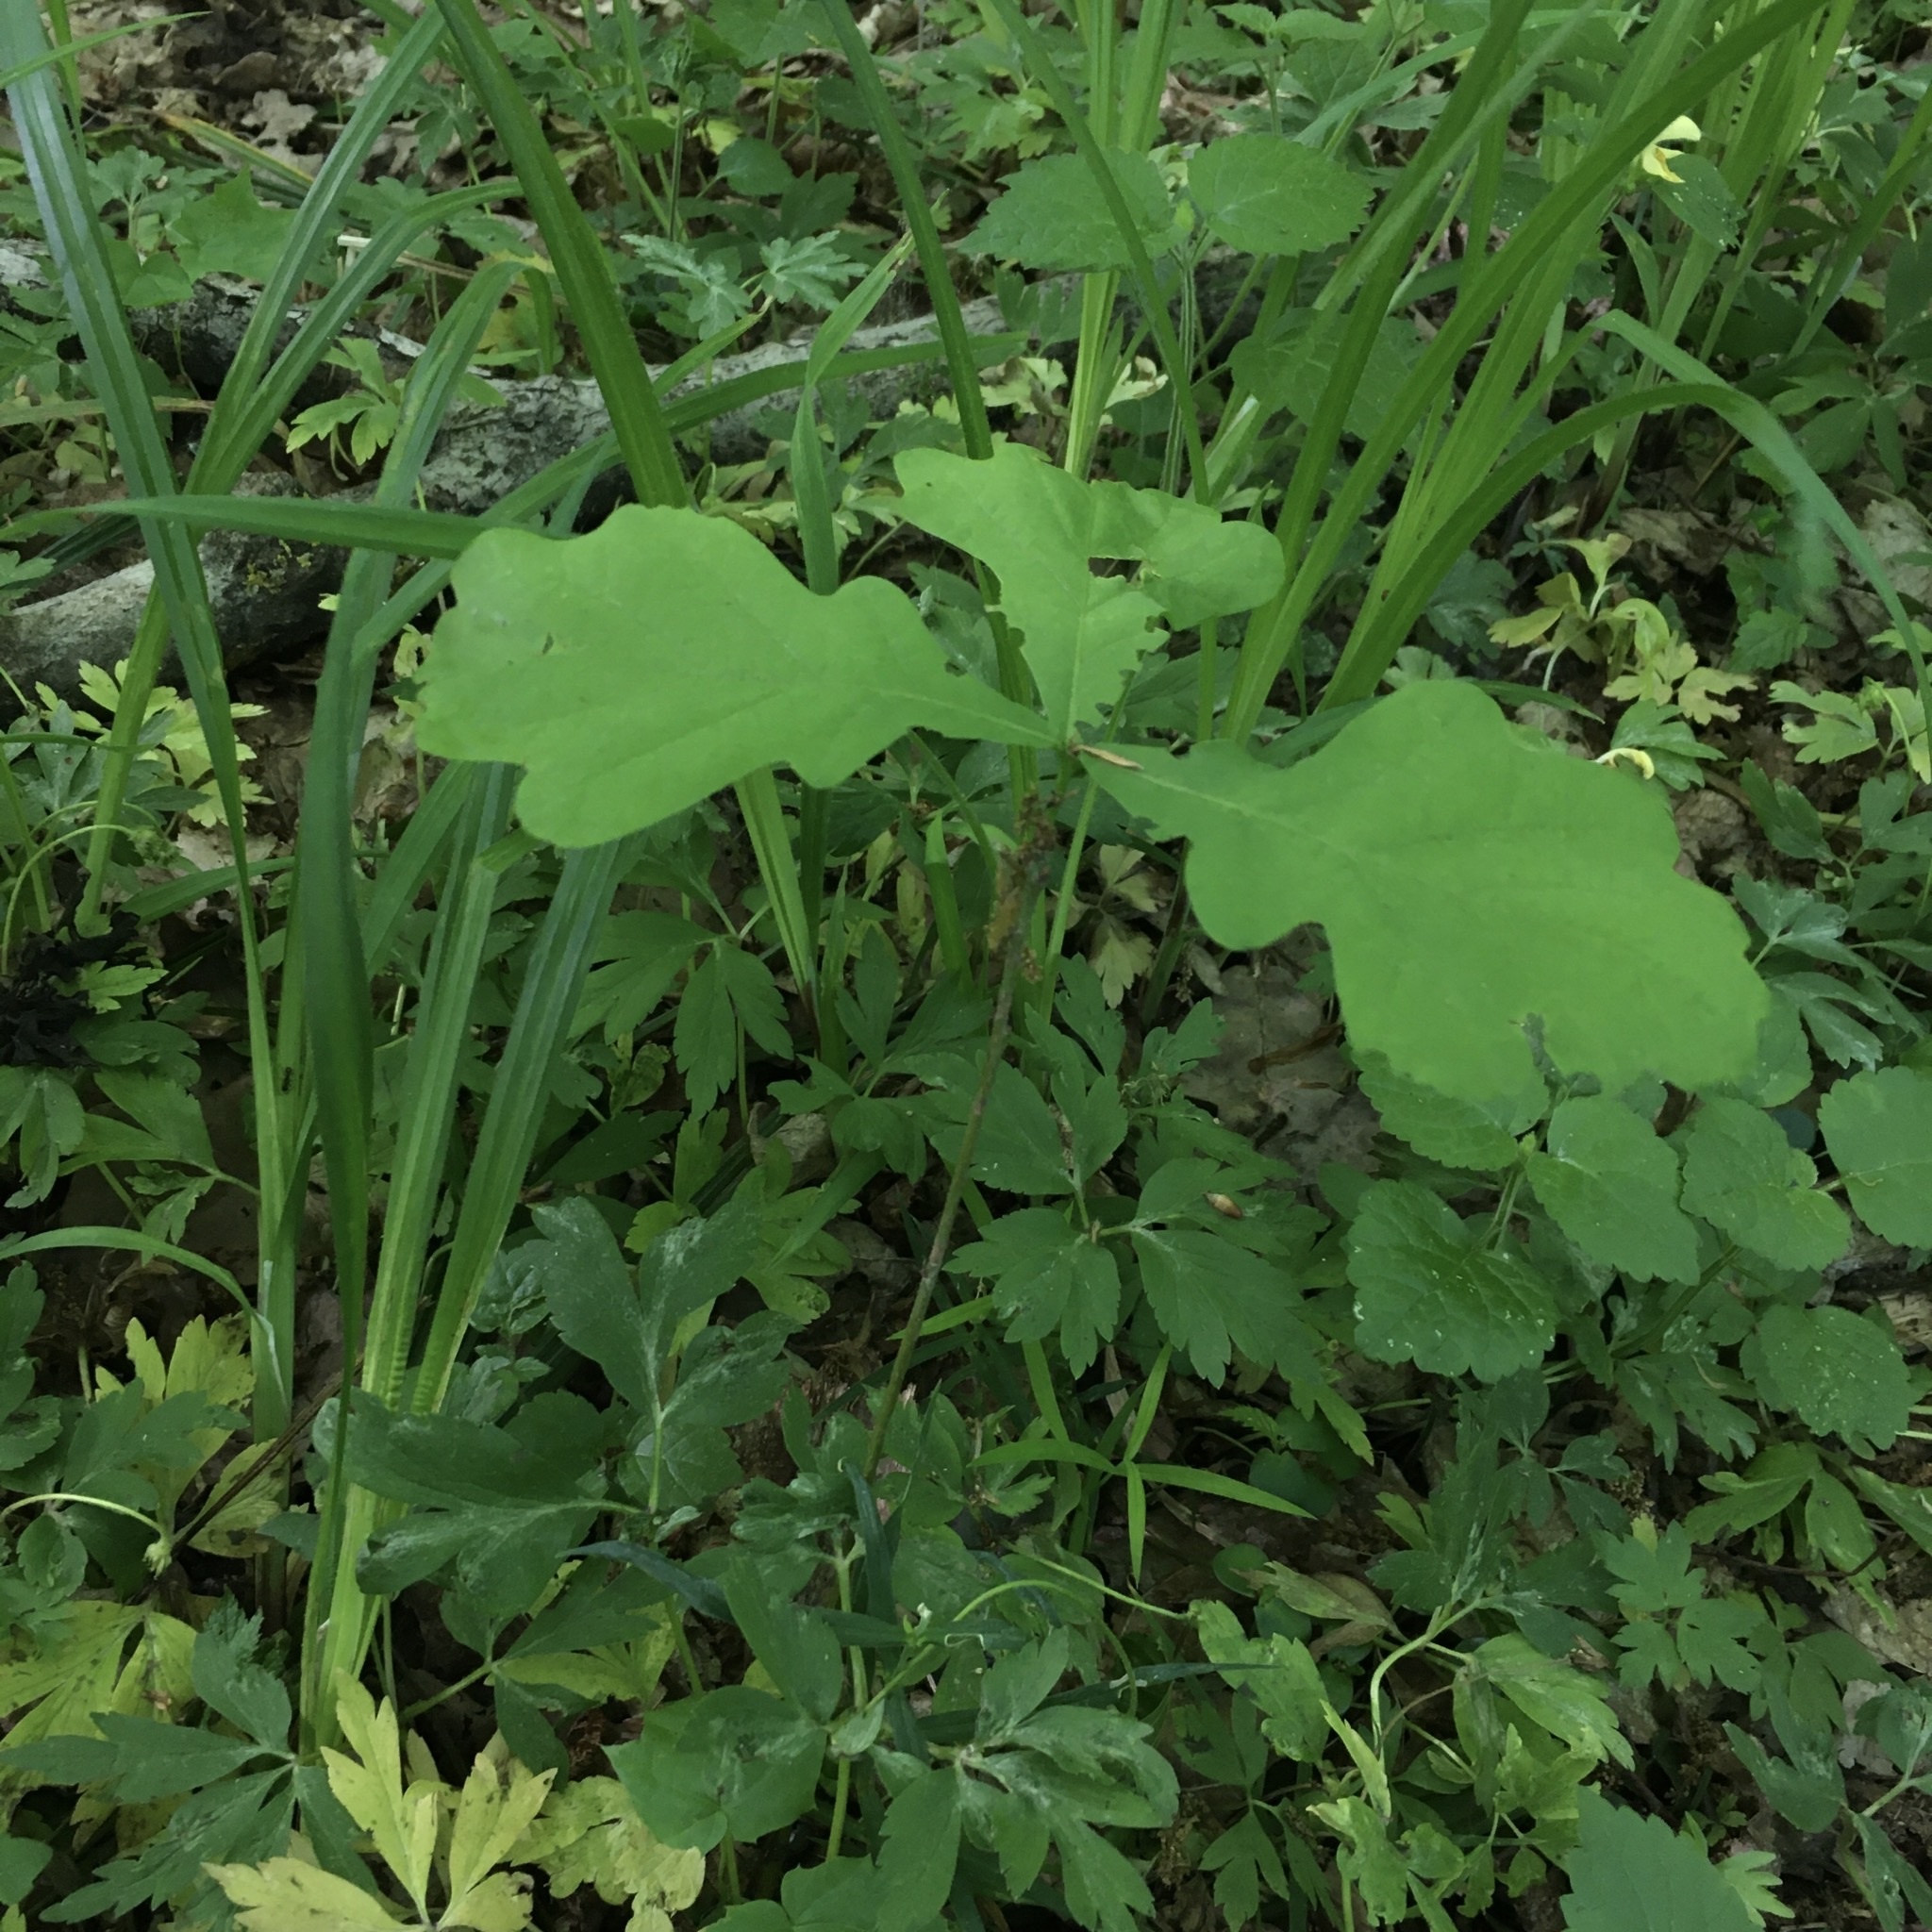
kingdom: Plantae
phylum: Tracheophyta
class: Magnoliopsida
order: Fagales
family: Fagaceae
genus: Quercus
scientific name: Quercus robur
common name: Pedunculate oak
